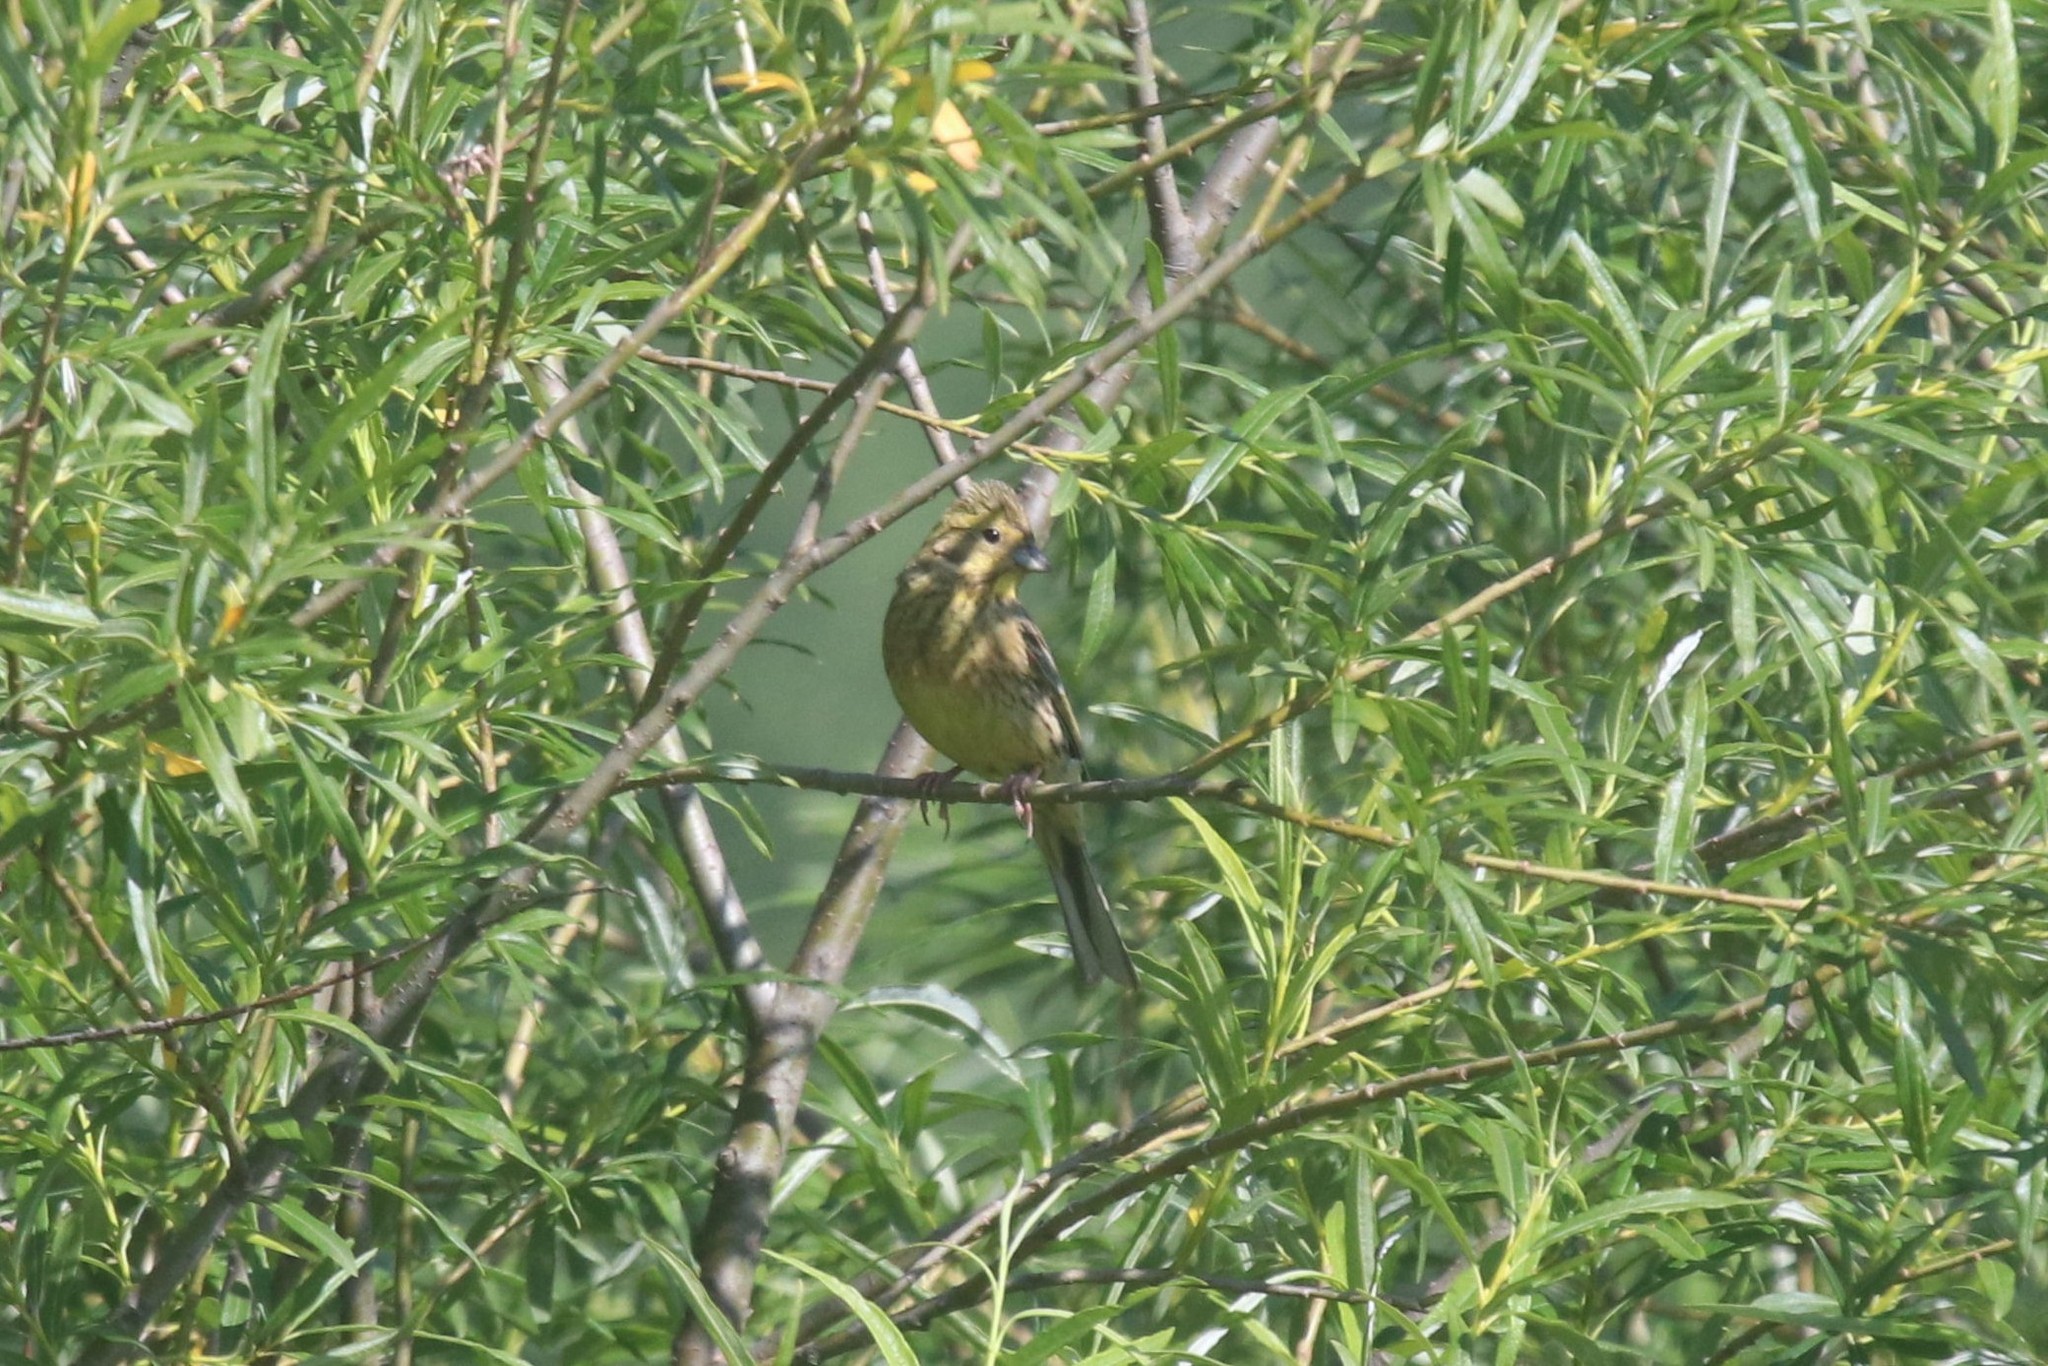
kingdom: Animalia
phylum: Chordata
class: Aves
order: Passeriformes
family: Emberizidae
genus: Emberiza
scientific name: Emberiza citrinella
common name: Yellowhammer
